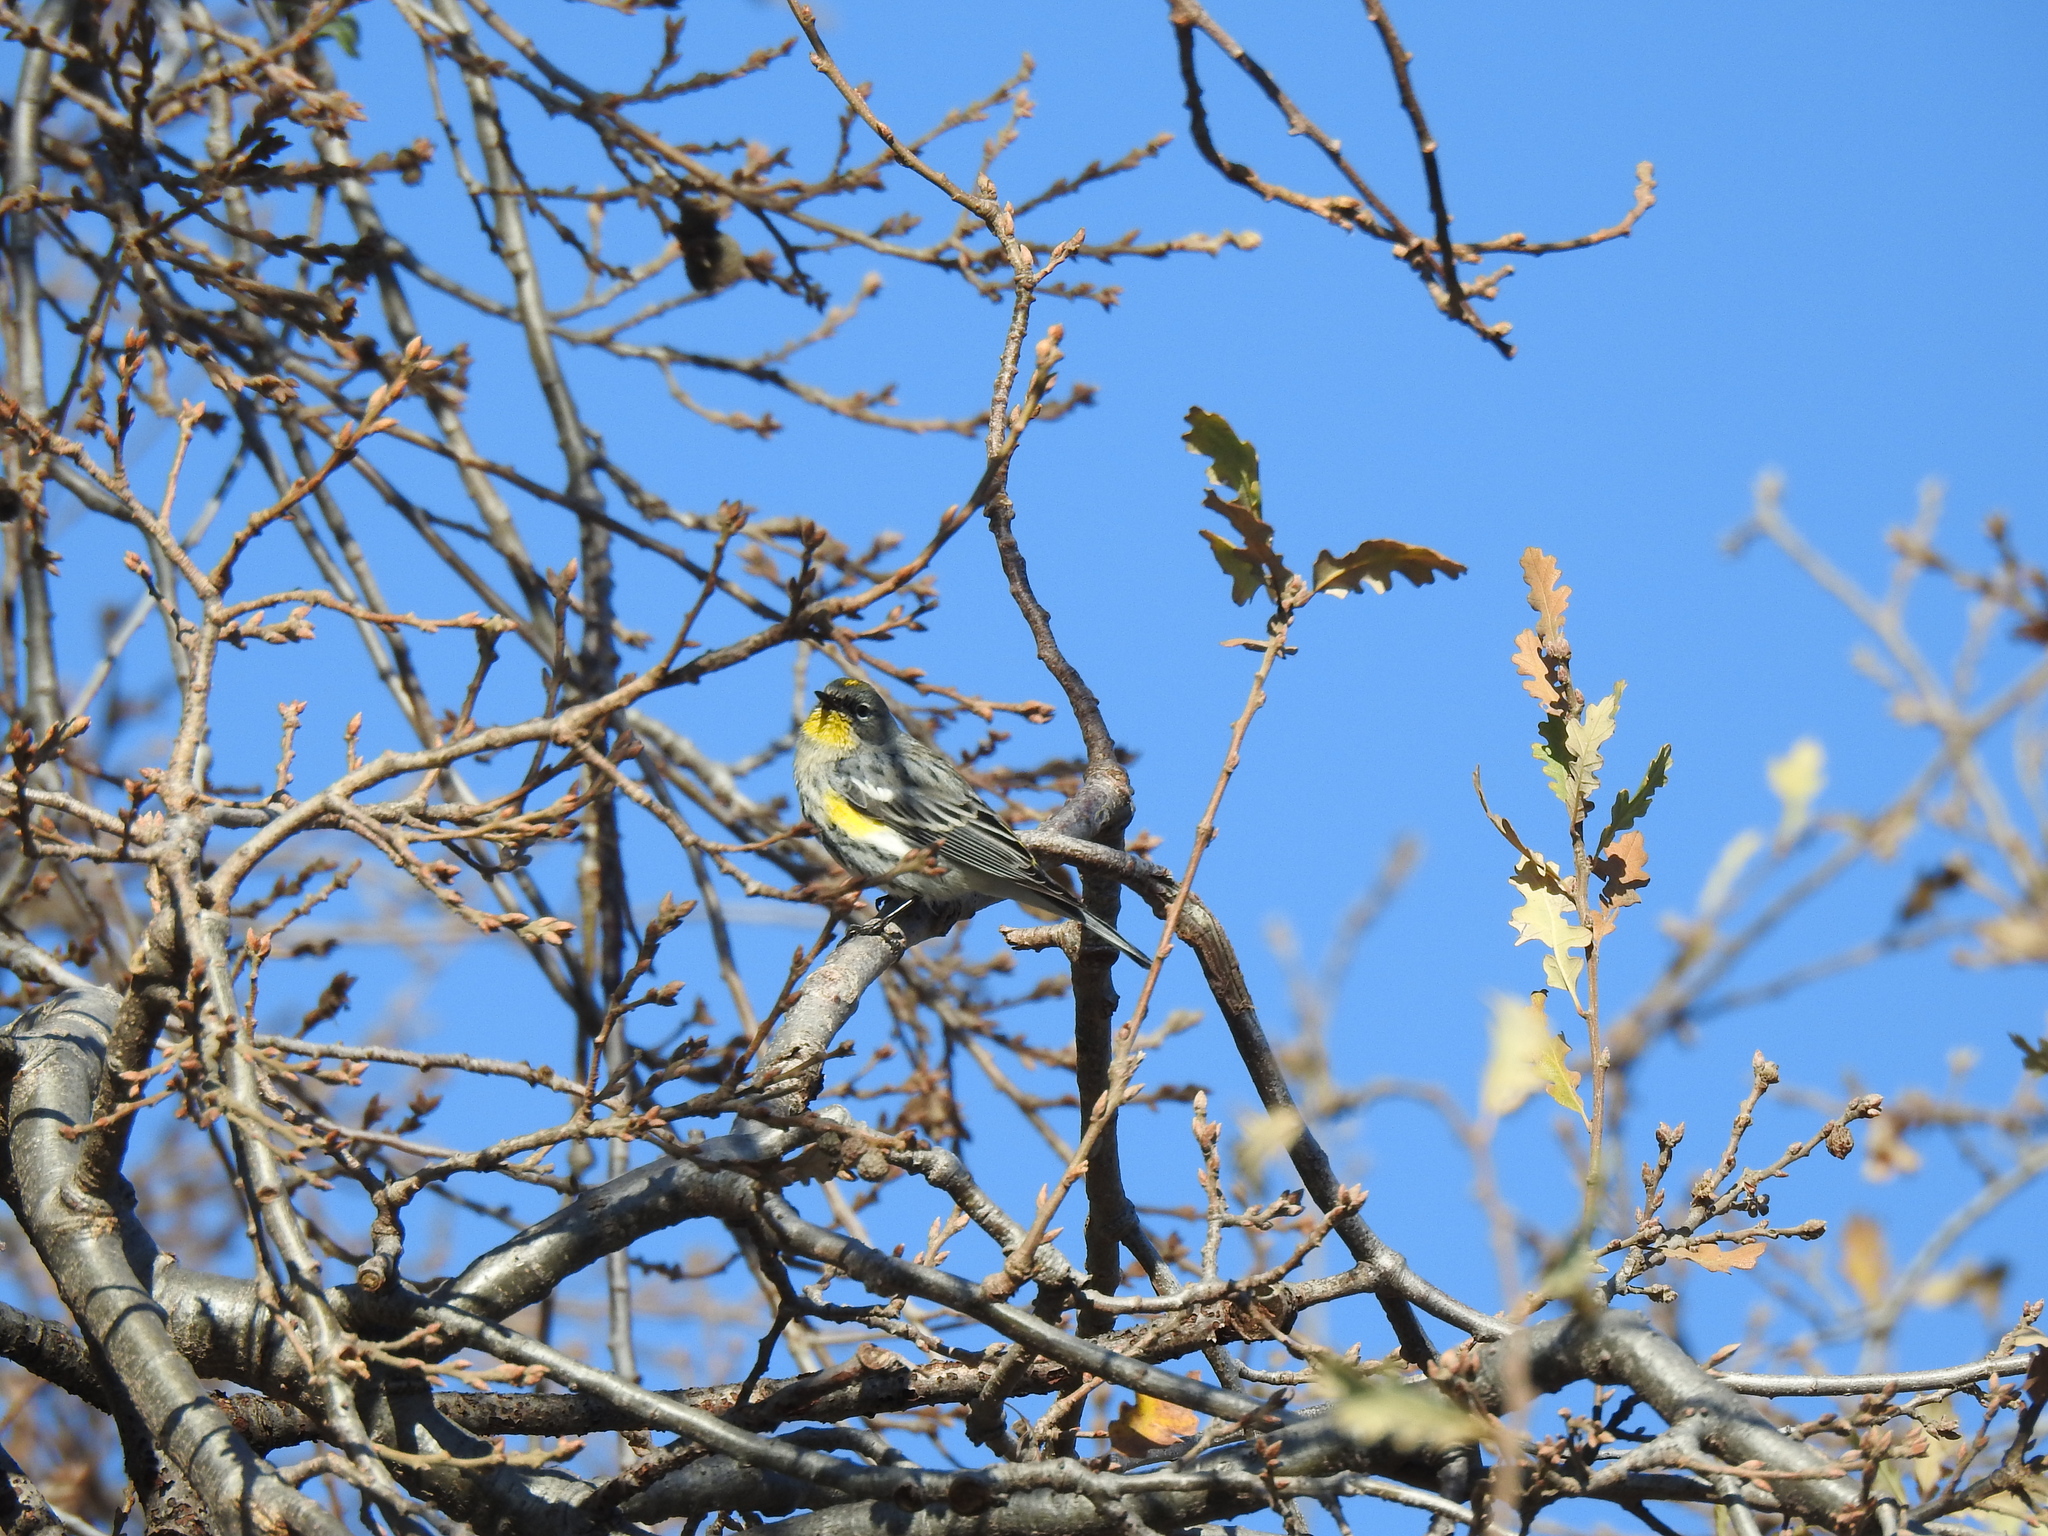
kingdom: Animalia
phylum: Chordata
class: Aves
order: Passeriformes
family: Parulidae
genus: Setophaga
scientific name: Setophaga coronata
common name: Myrtle warbler
